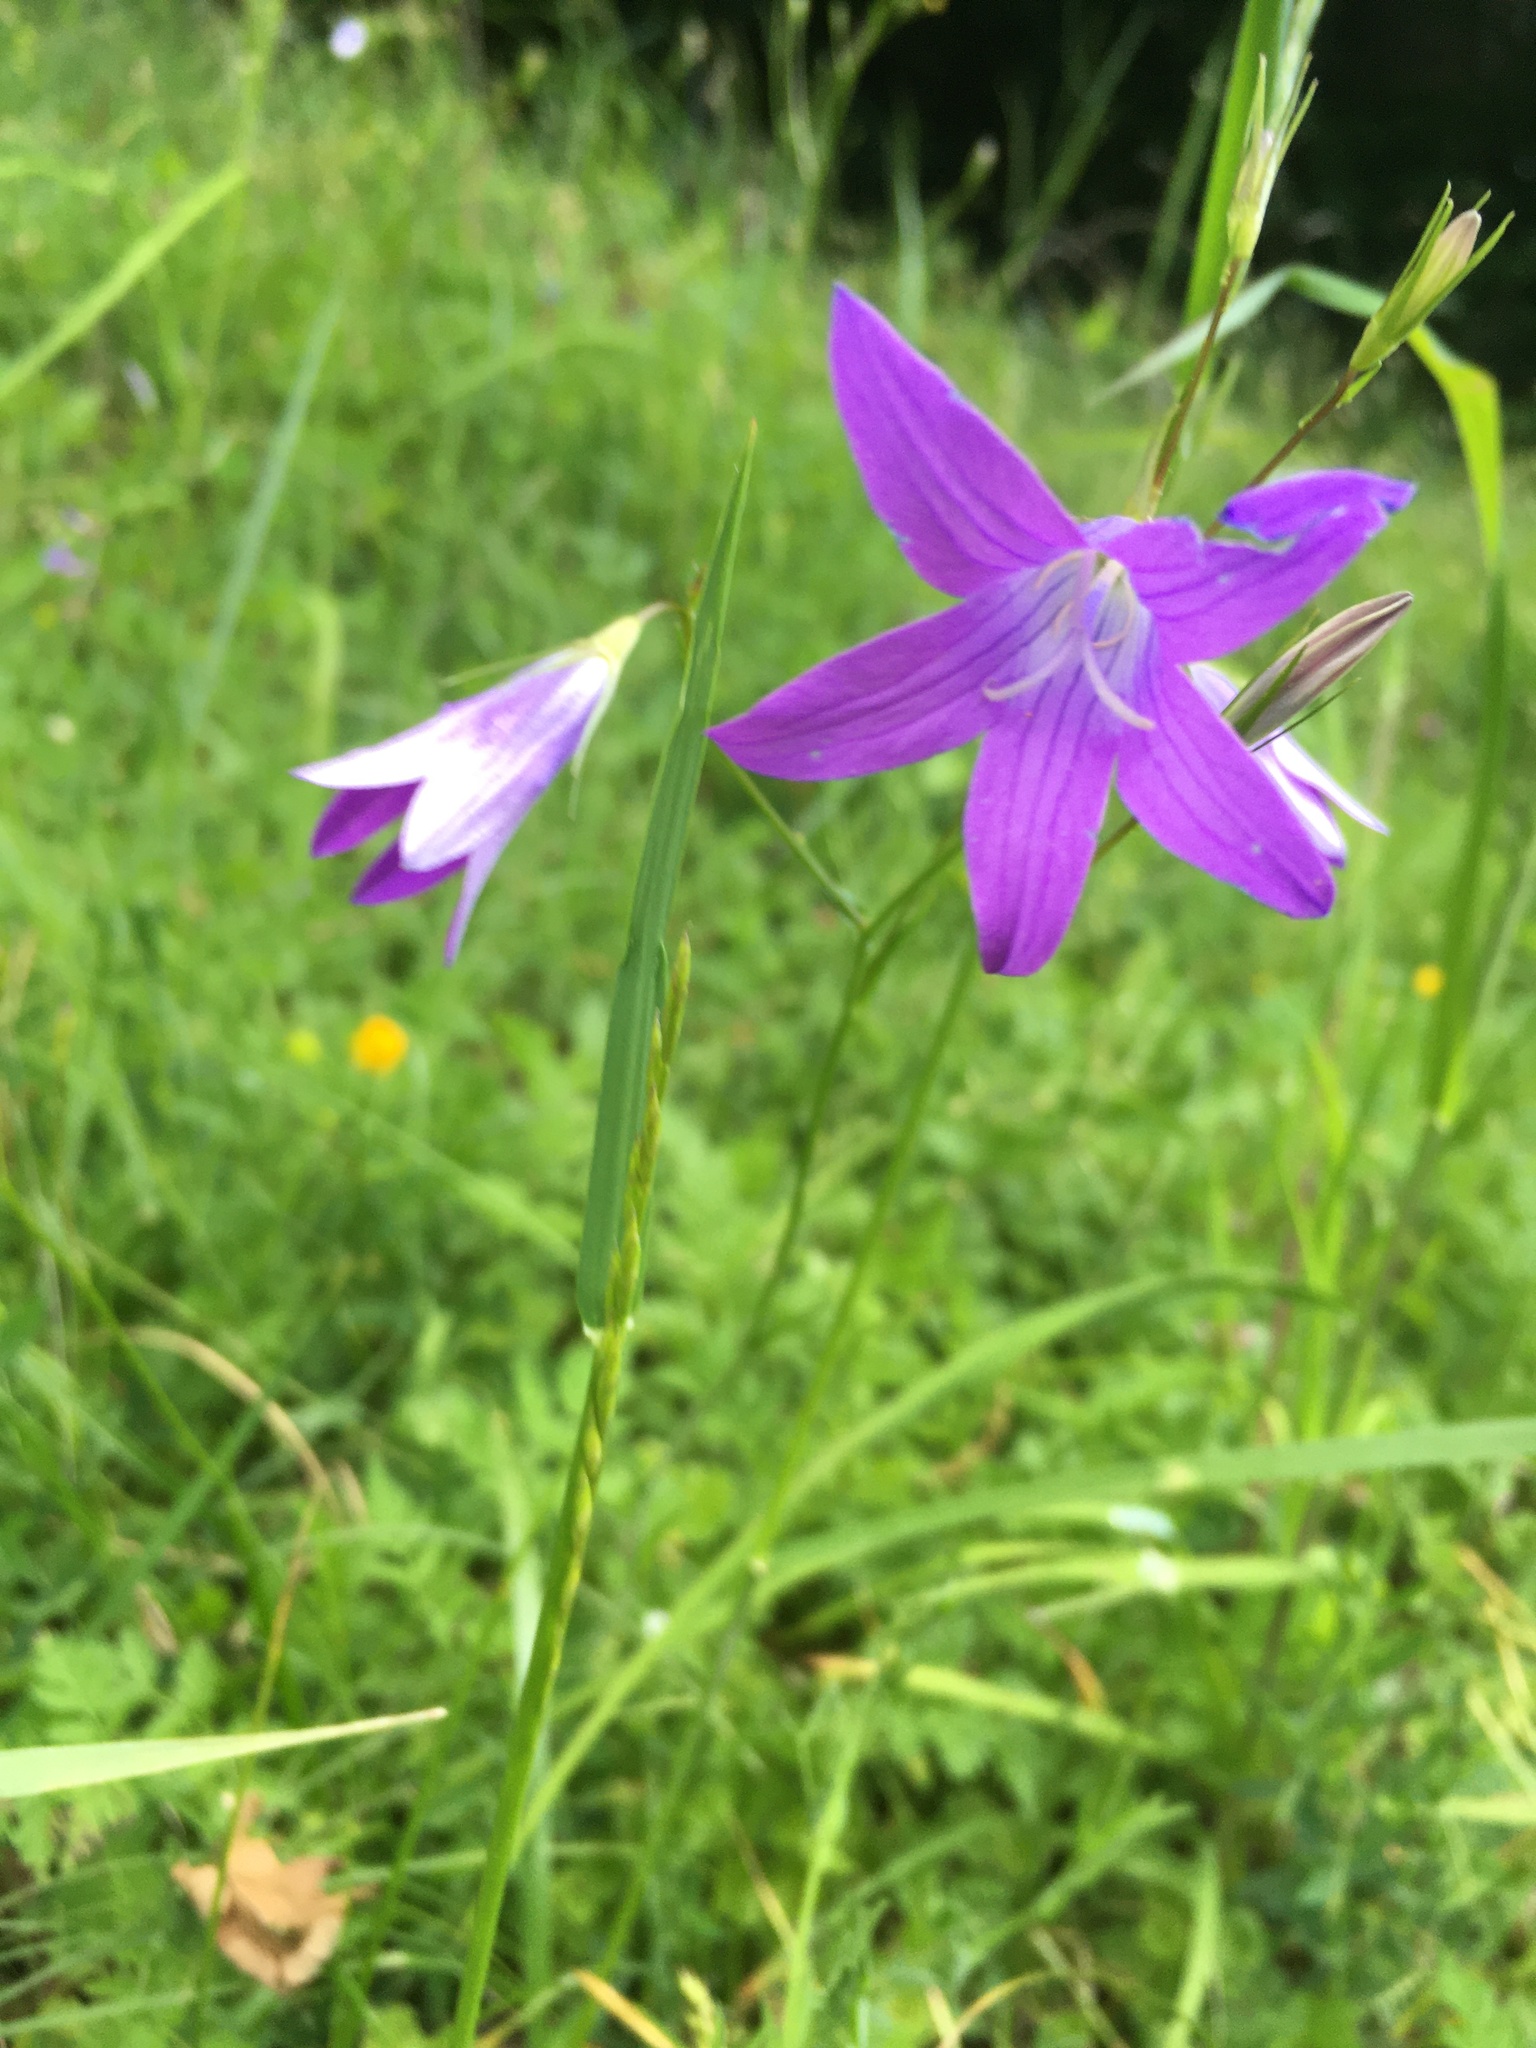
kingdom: Plantae
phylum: Tracheophyta
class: Magnoliopsida
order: Asterales
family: Campanulaceae
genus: Campanula
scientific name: Campanula patula
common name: Spreading bellflower
